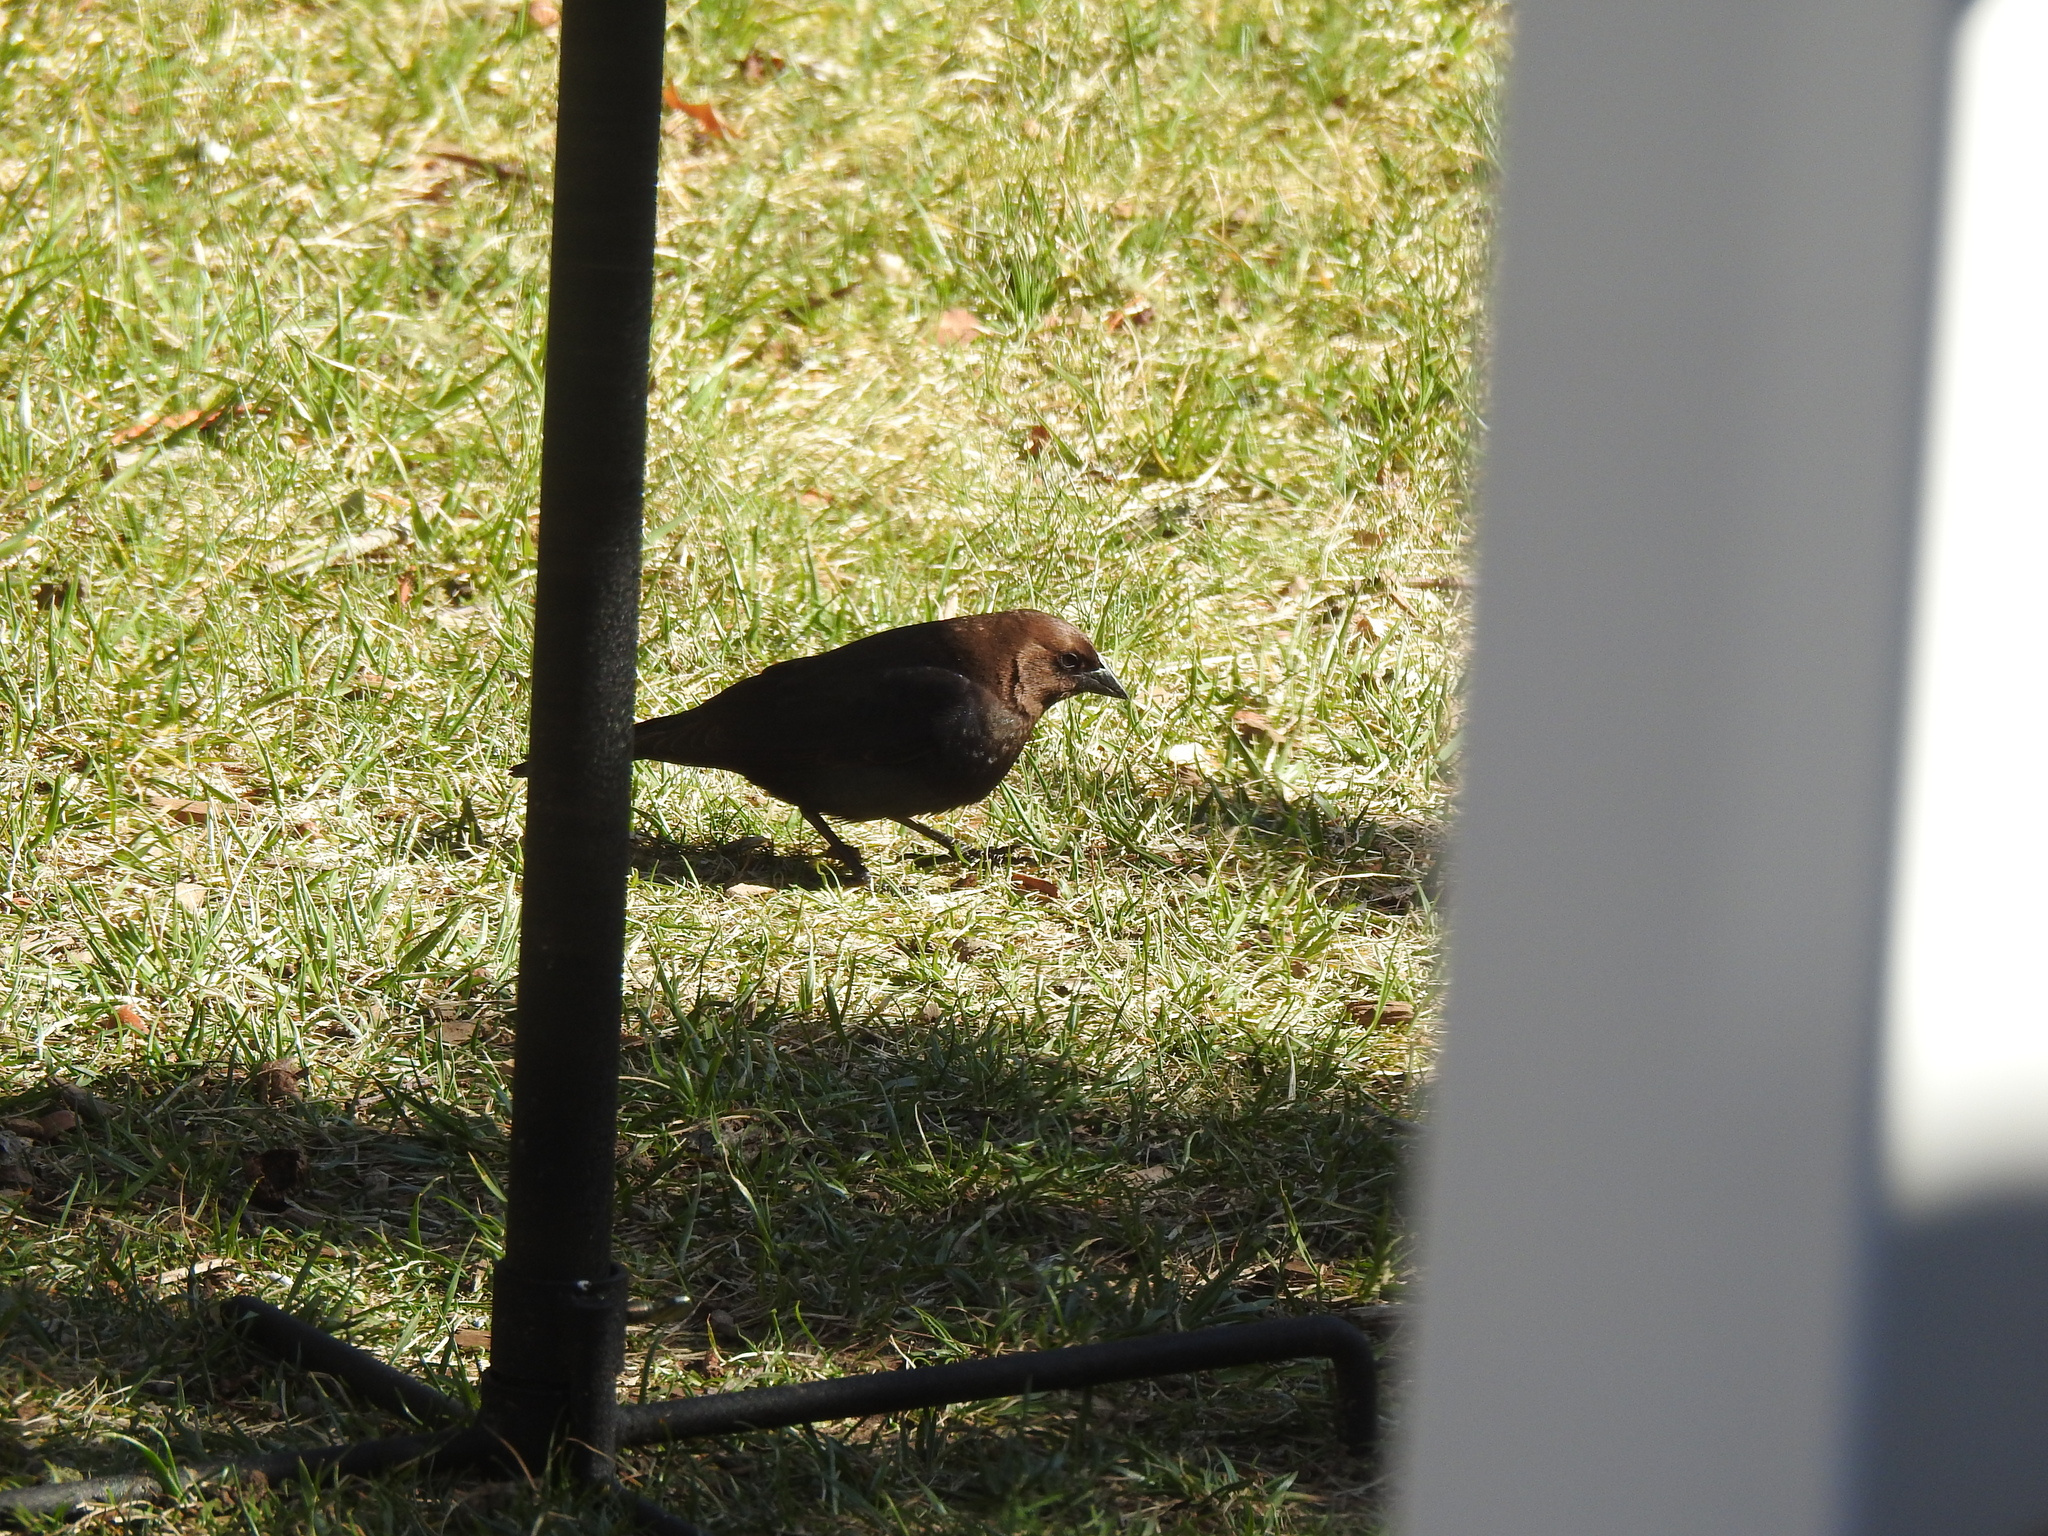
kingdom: Animalia
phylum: Chordata
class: Aves
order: Passeriformes
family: Icteridae
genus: Molothrus
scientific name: Molothrus ater
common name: Brown-headed cowbird
